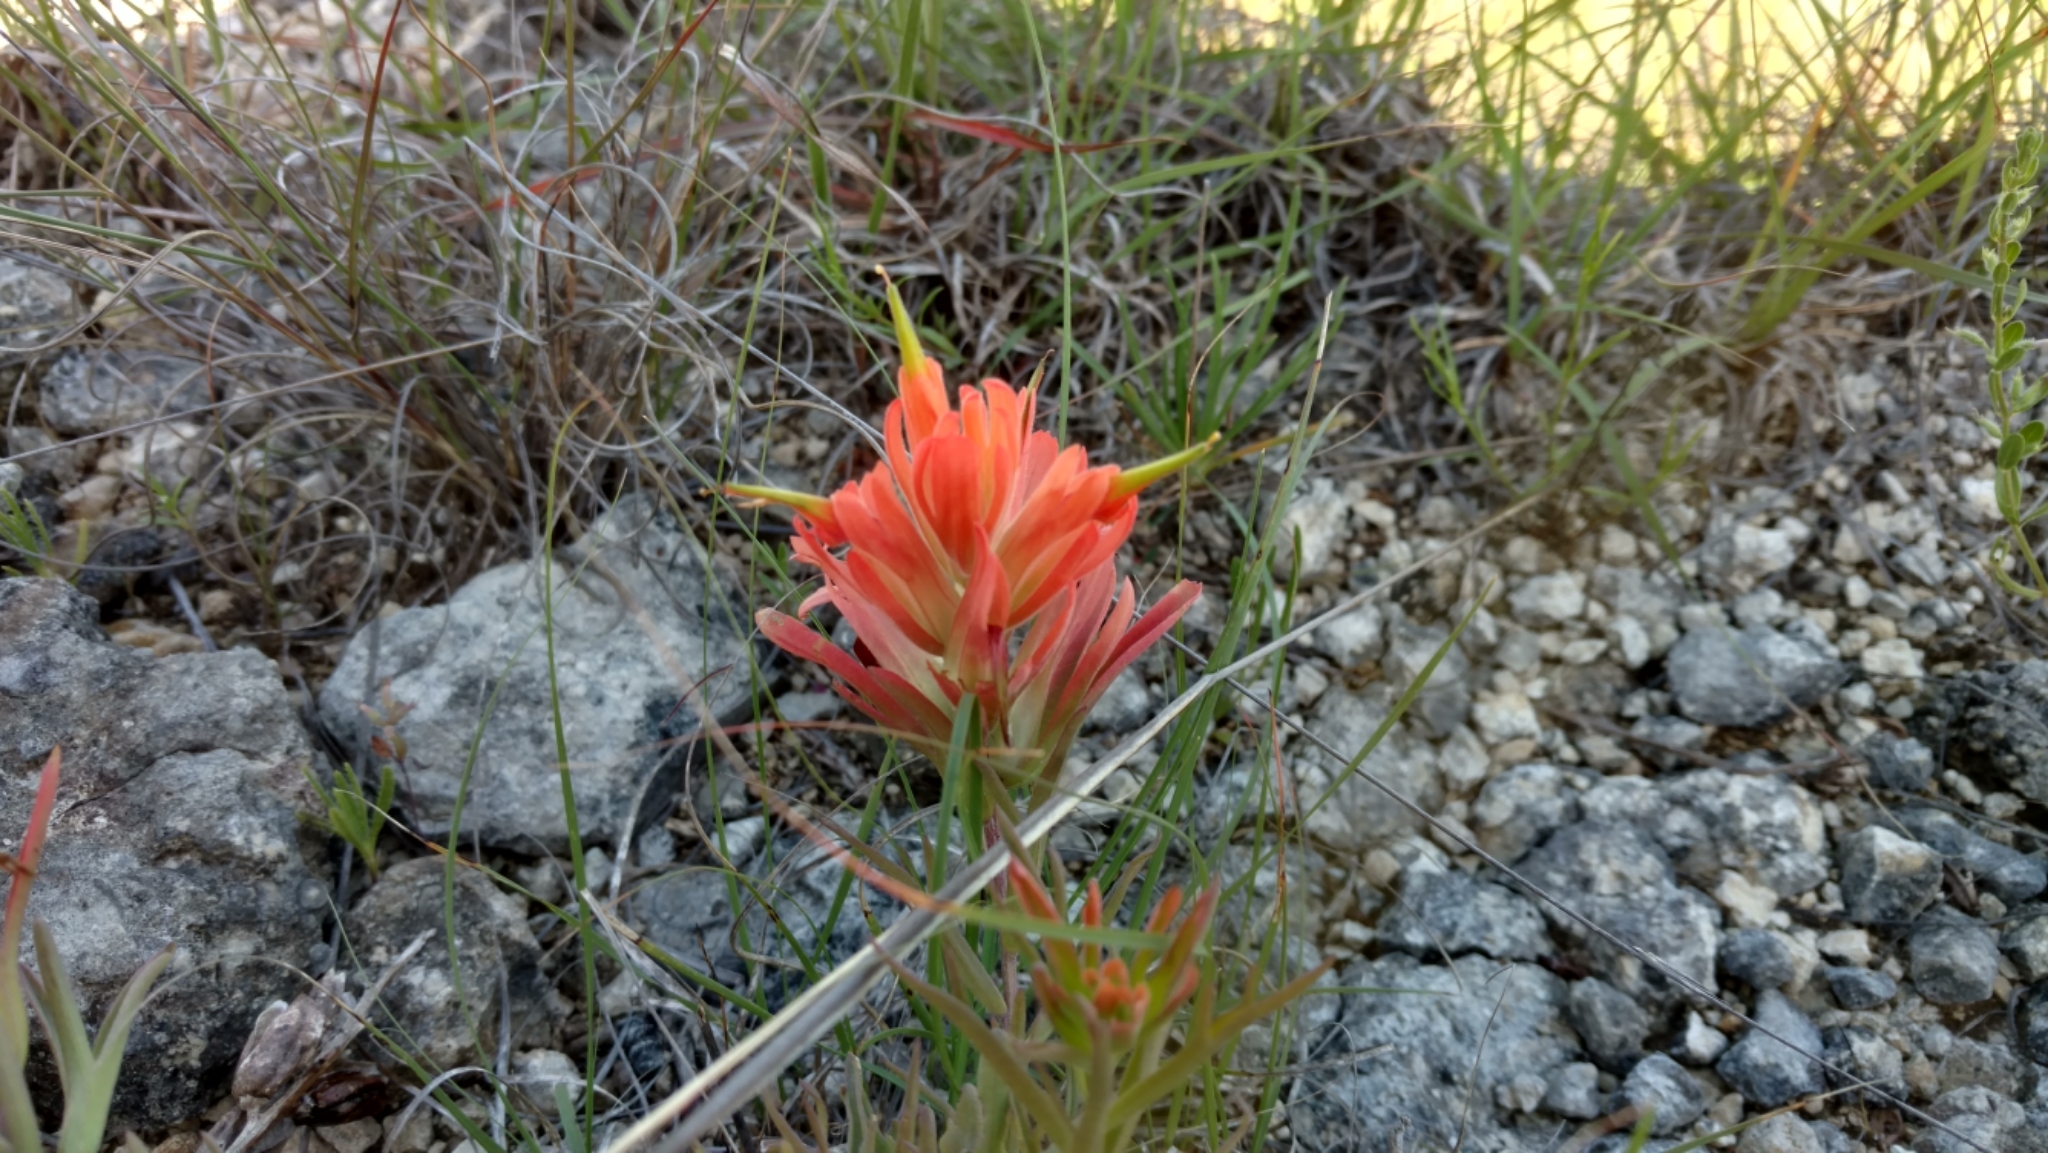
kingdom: Plantae
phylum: Tracheophyta
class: Magnoliopsida
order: Lamiales
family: Orobanchaceae
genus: Castilleja
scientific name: Castilleja lindheimeri
